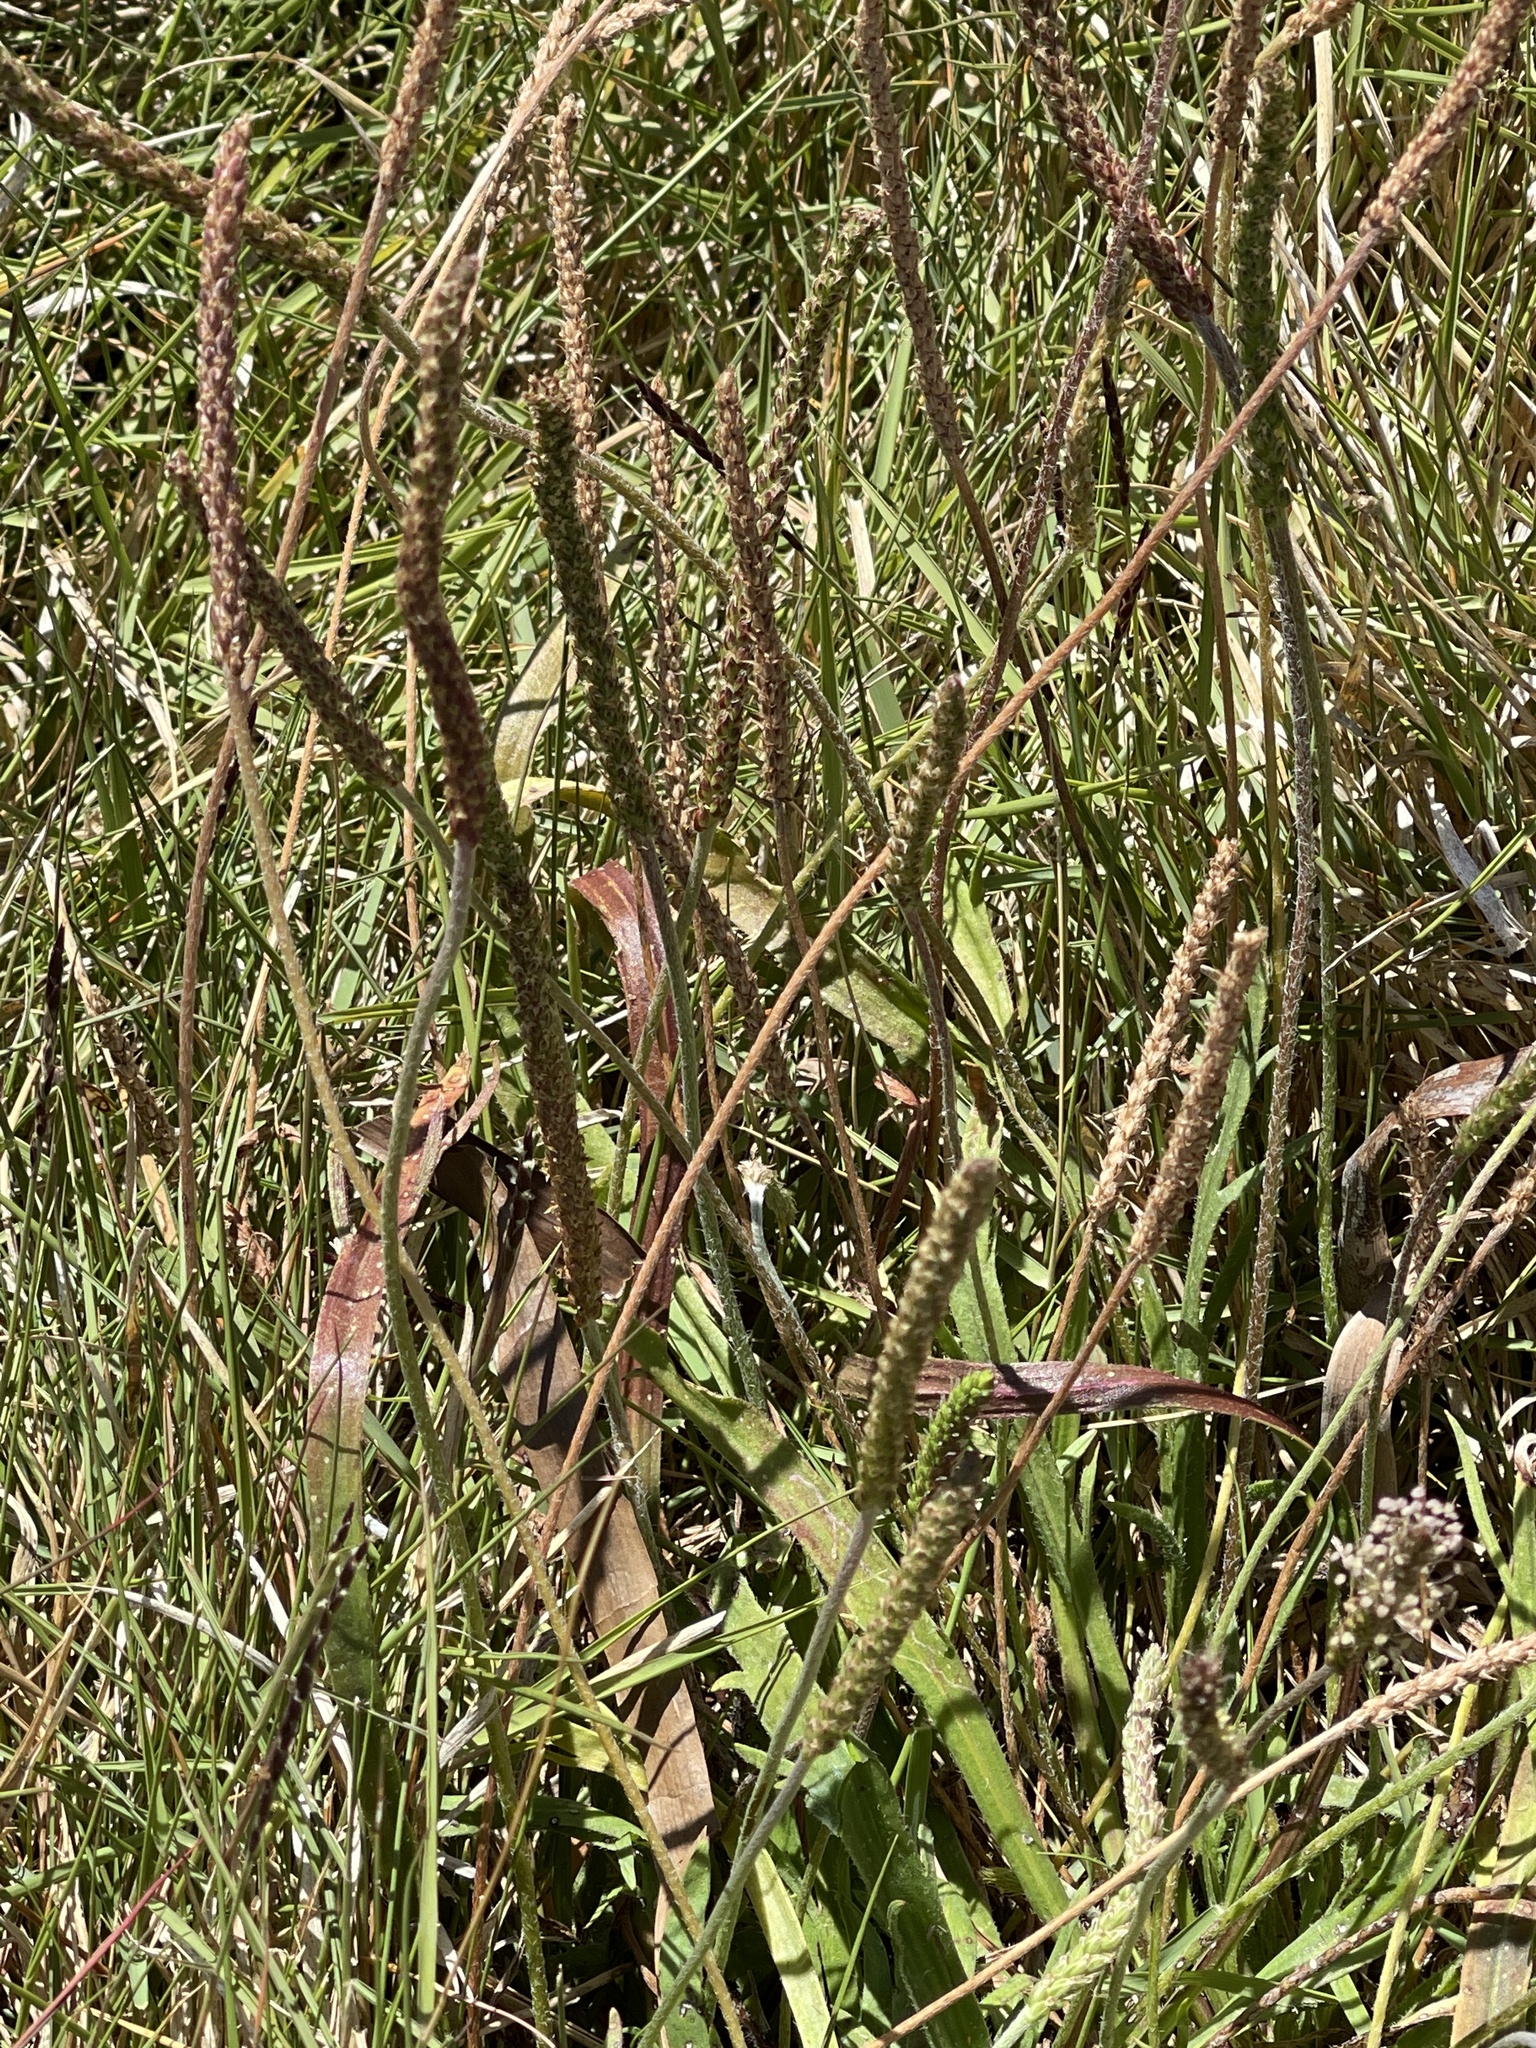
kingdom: Plantae
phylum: Tracheophyta
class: Magnoliopsida
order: Lamiales
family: Plantaginaceae
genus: Plantago
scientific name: Plantago coronopus
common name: Buck's-horn plantain
